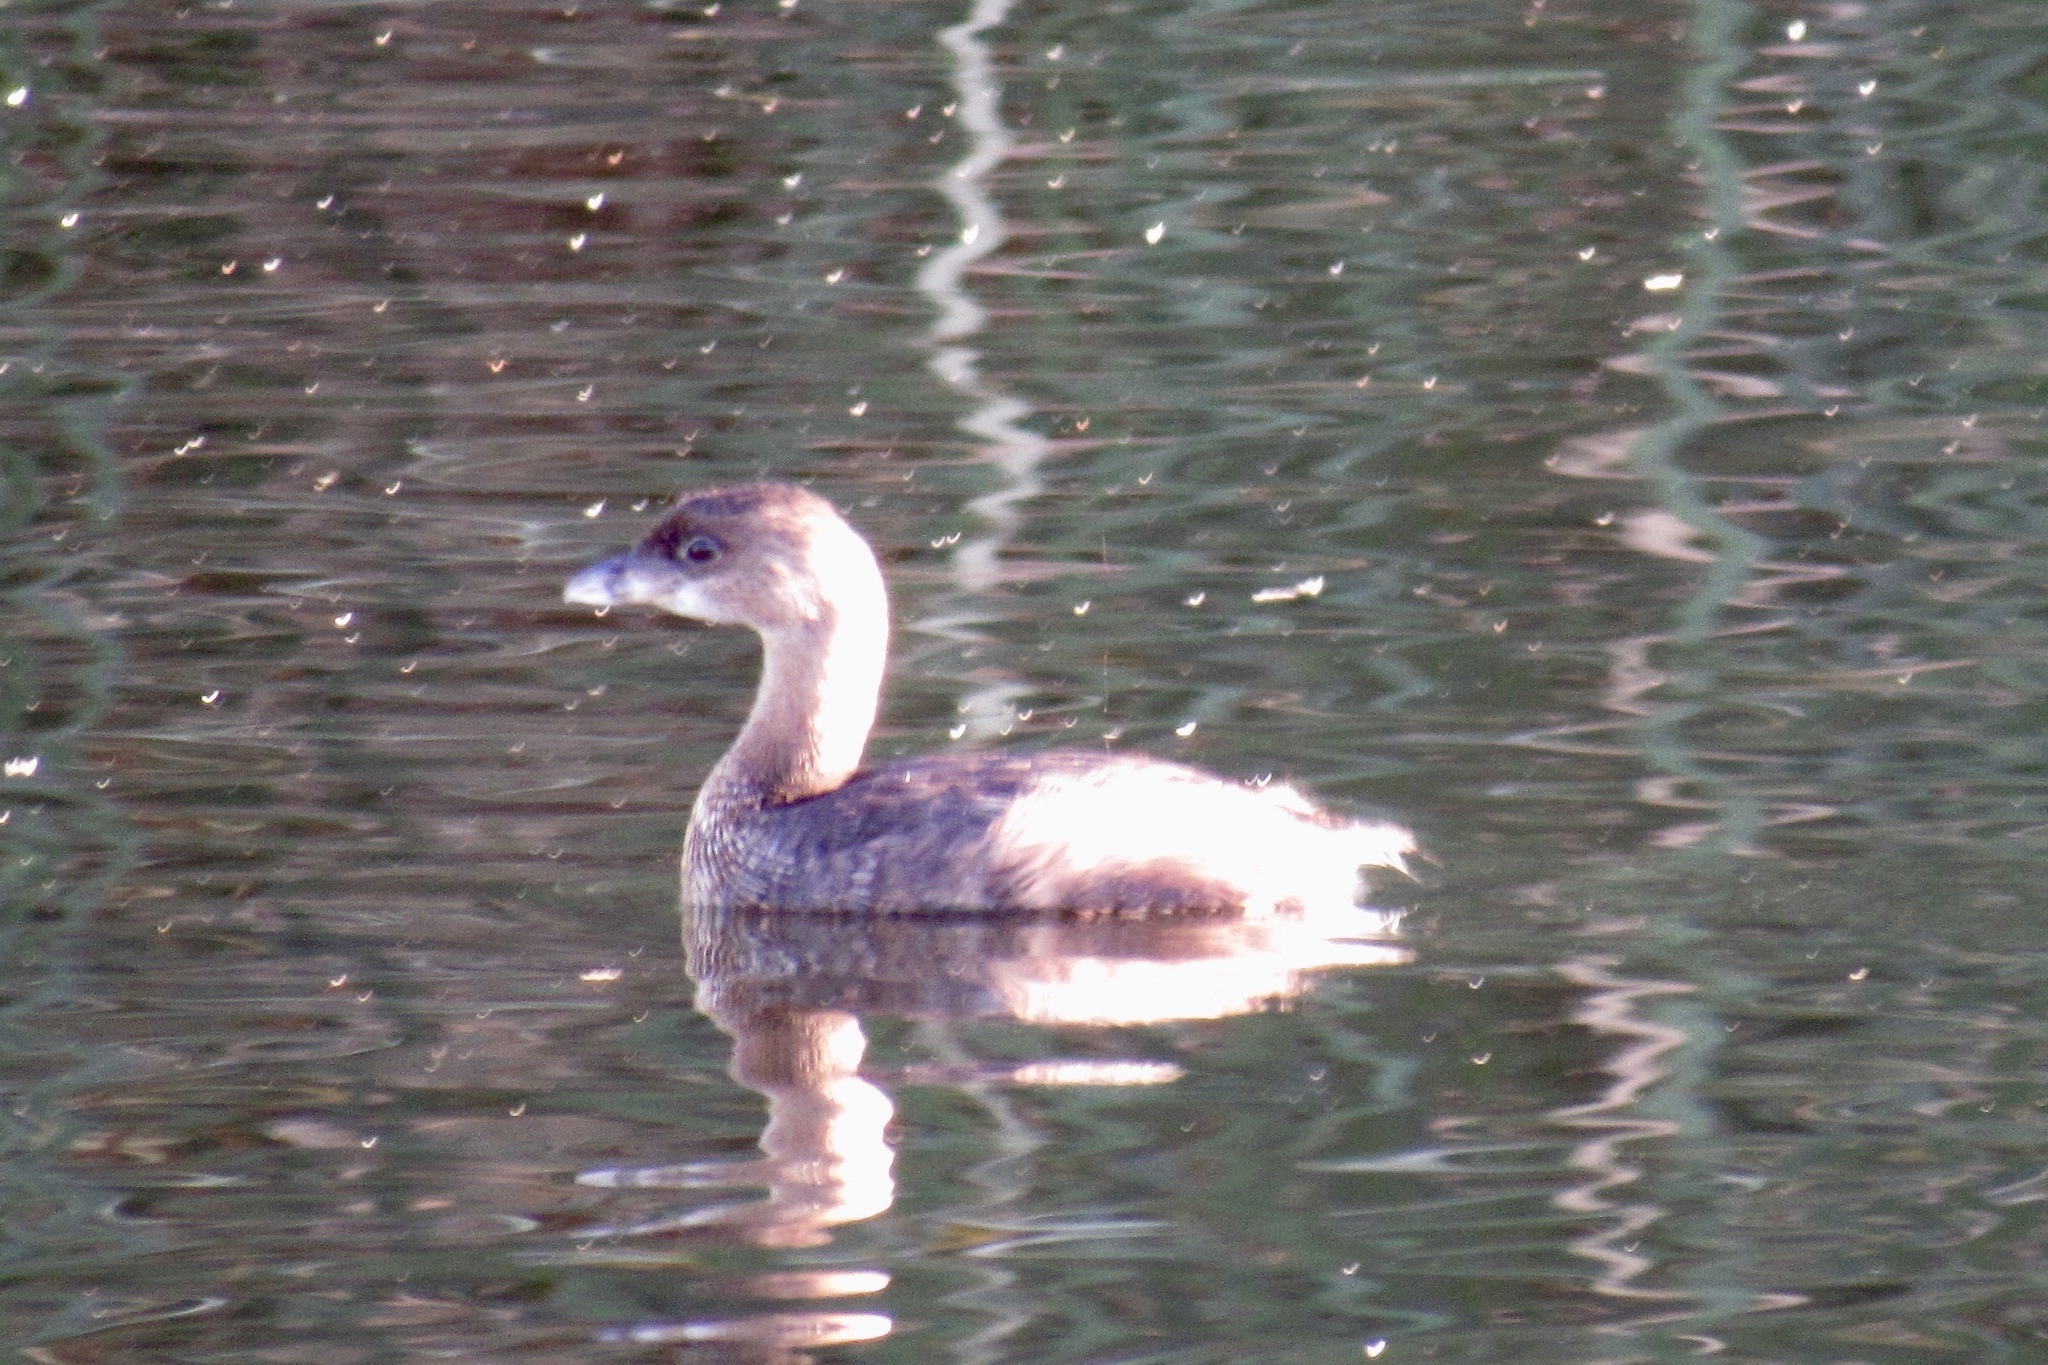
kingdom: Animalia
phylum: Chordata
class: Aves
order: Podicipediformes
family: Podicipedidae
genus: Podilymbus
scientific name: Podilymbus podiceps
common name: Pied-billed grebe
